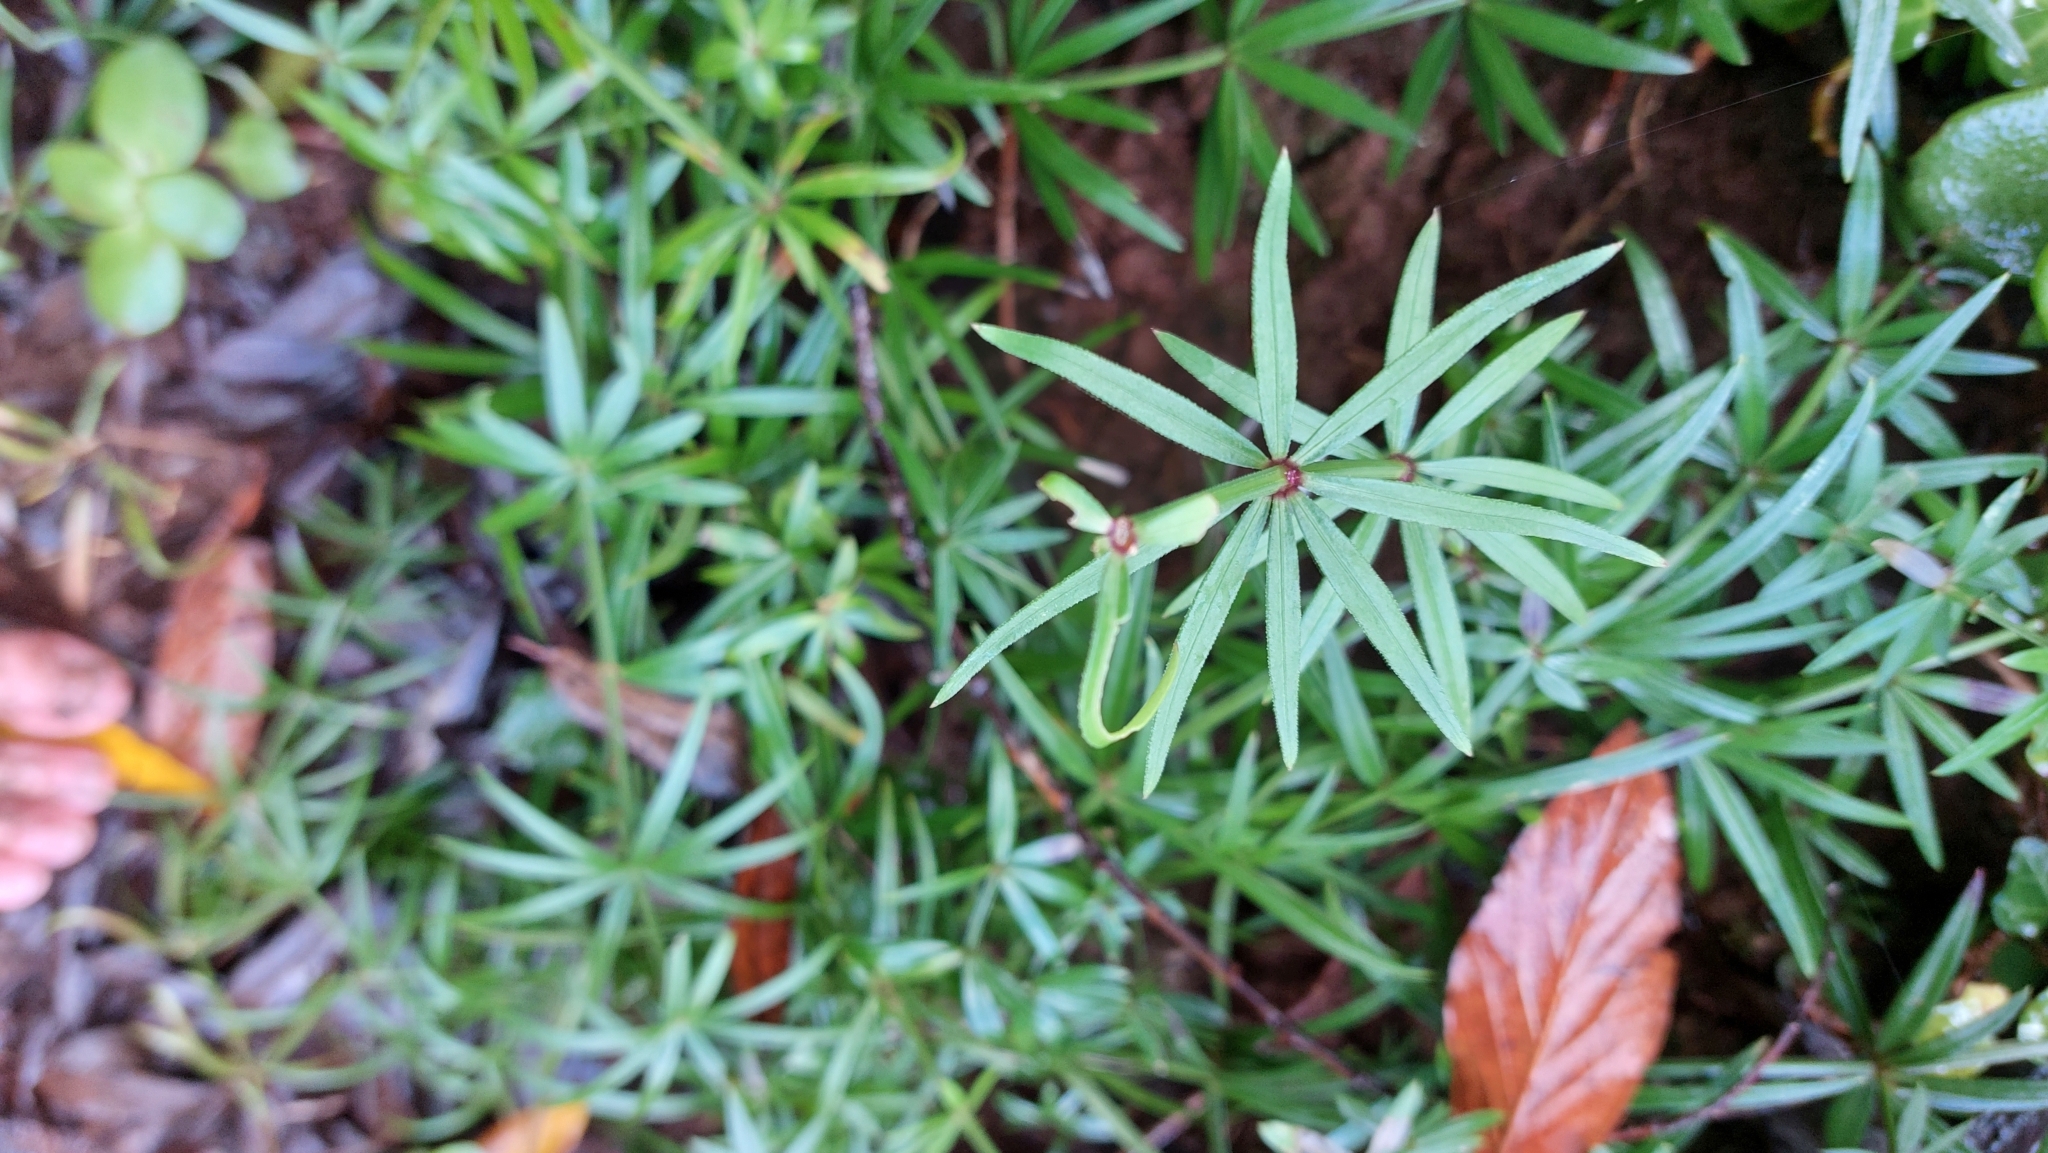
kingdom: Plantae
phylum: Tracheophyta
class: Magnoliopsida
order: Gentianales
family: Rubiaceae
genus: Rubia
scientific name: Rubia occidens
